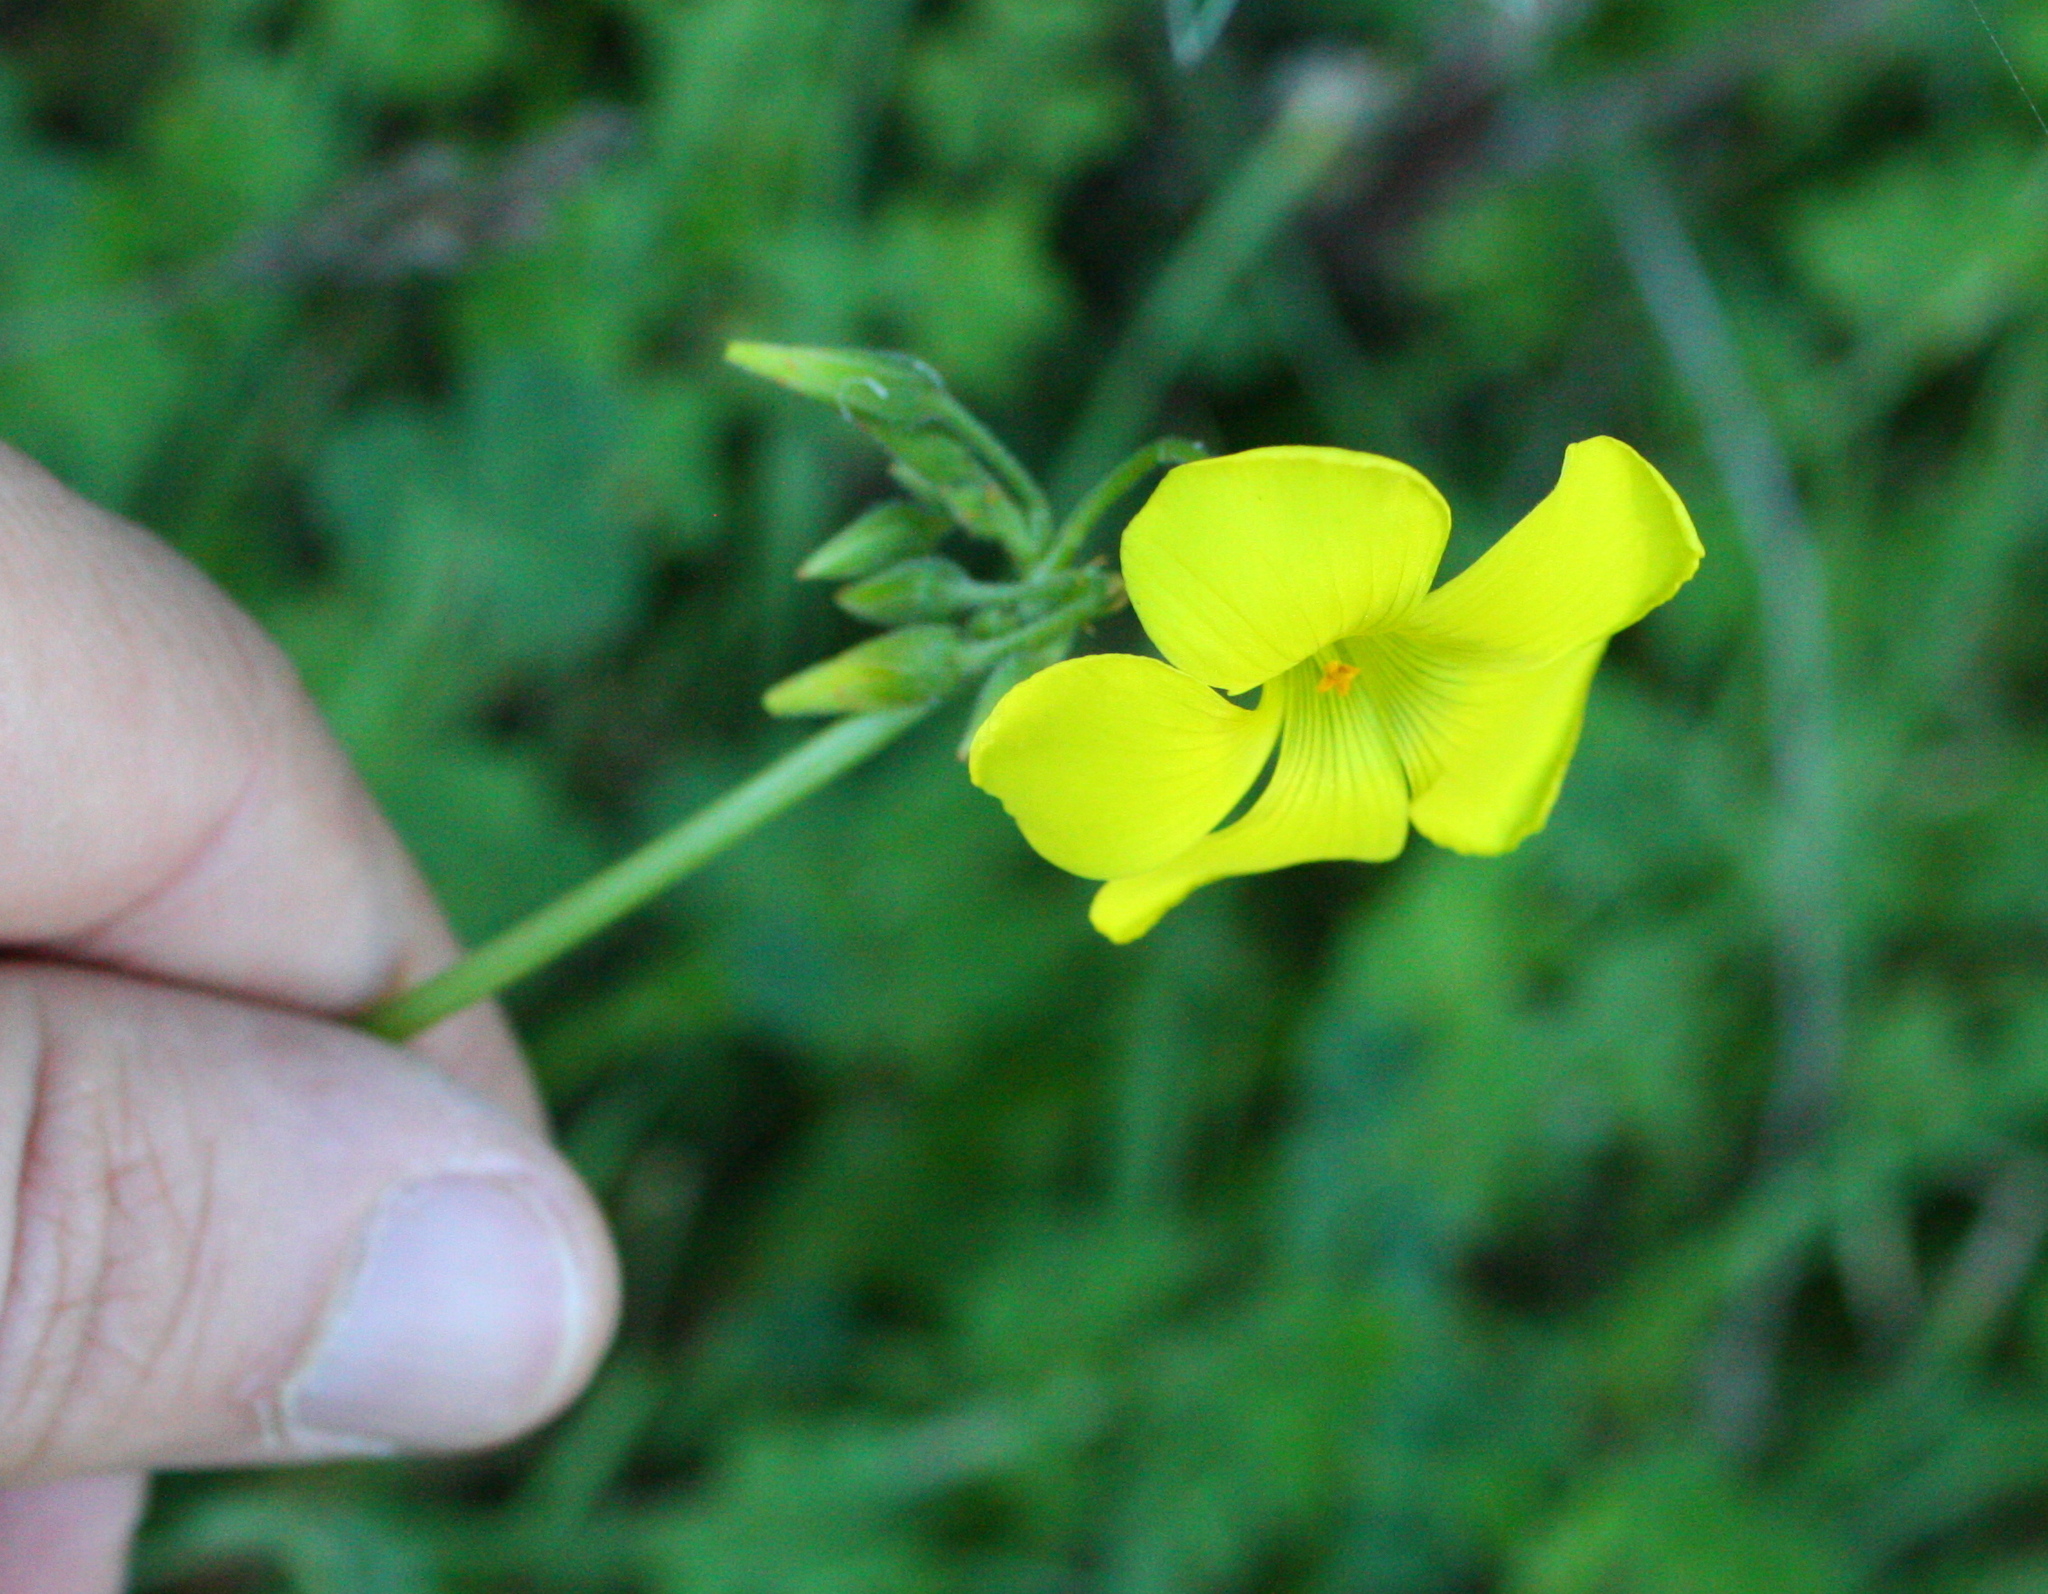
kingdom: Plantae
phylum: Tracheophyta
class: Magnoliopsida
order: Oxalidales
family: Oxalidaceae
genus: Oxalis
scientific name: Oxalis pes-caprae
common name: Bermuda-buttercup
